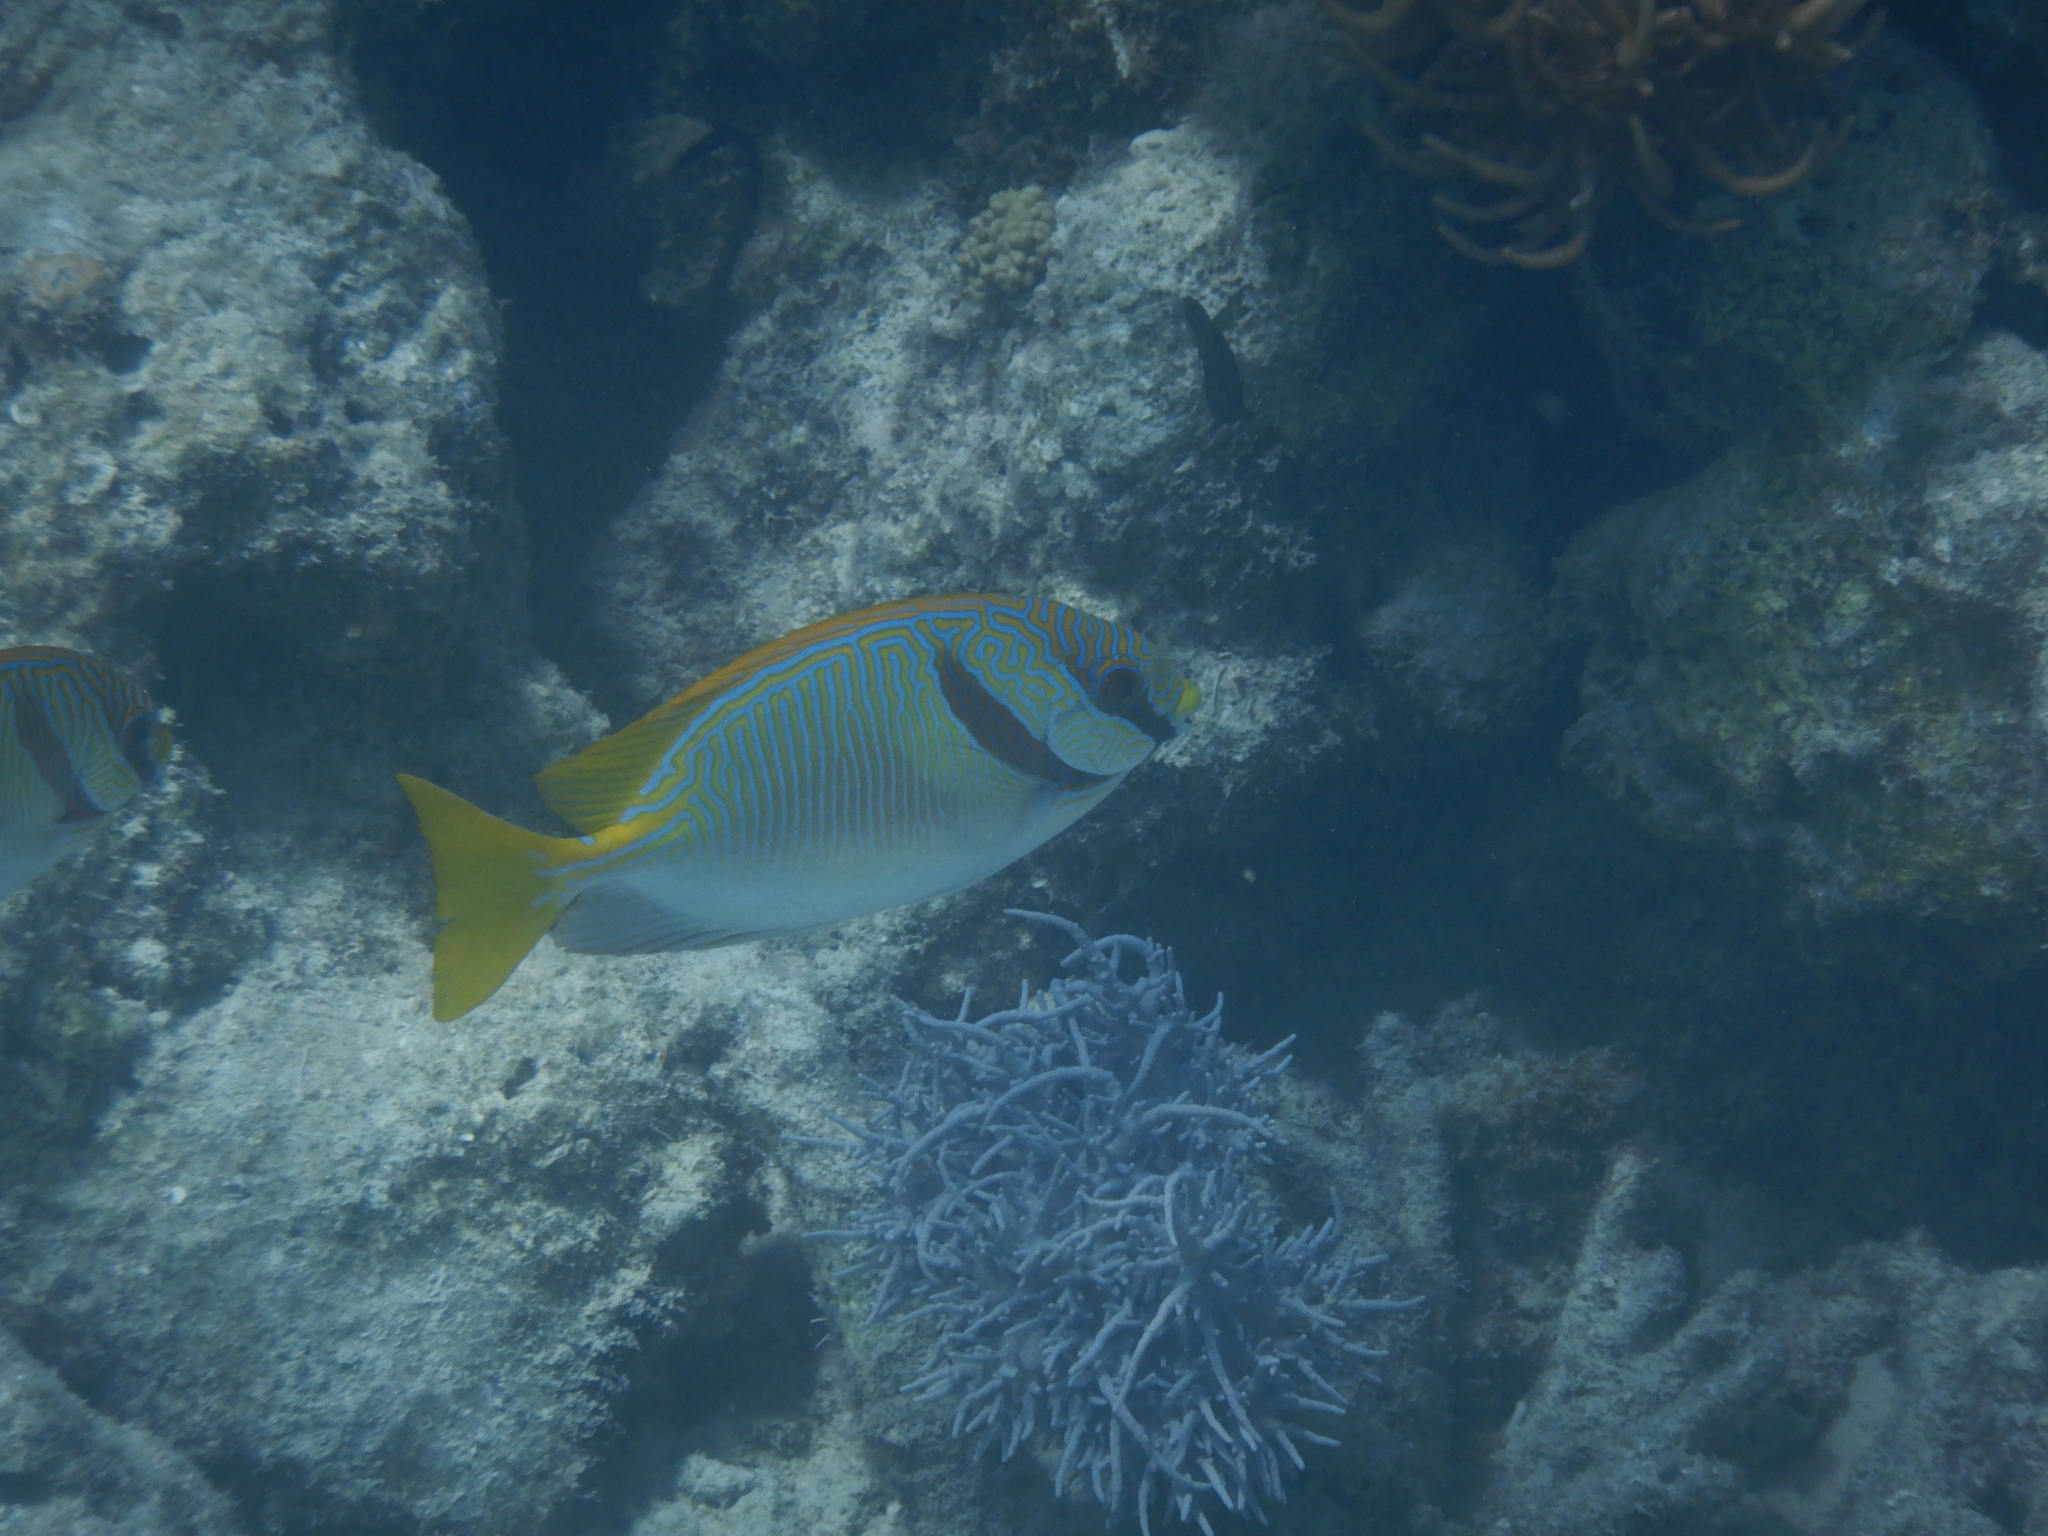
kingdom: Animalia
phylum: Chordata
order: Perciformes
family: Siganidae
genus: Siganus
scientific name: Siganus doliatus
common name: Barred spinefoot
